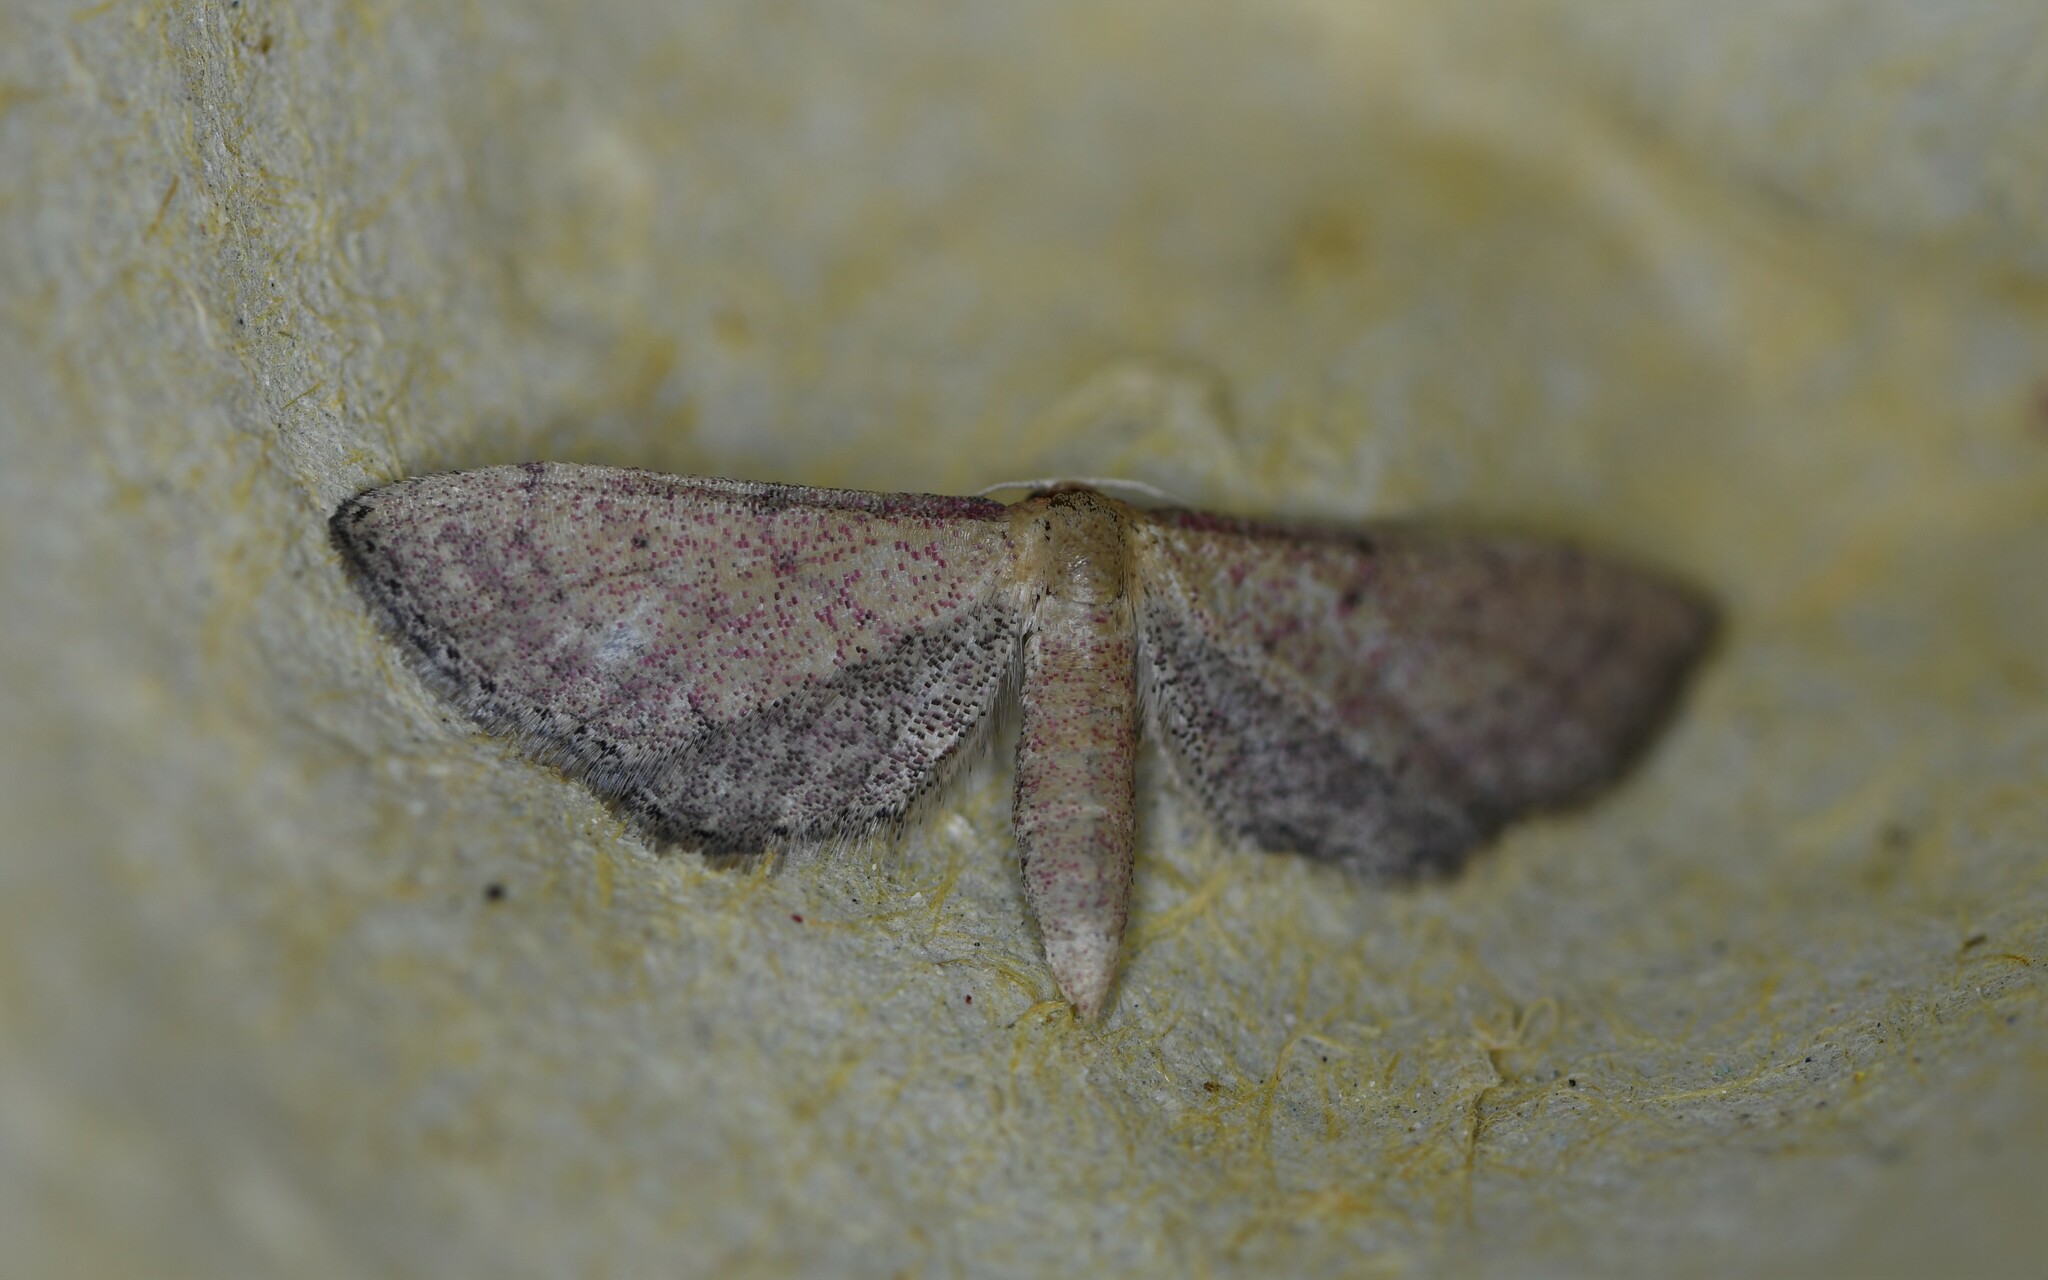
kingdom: Animalia
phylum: Arthropoda
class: Insecta
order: Lepidoptera
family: Geometridae
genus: Idaea
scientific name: Idaea infirmaria
